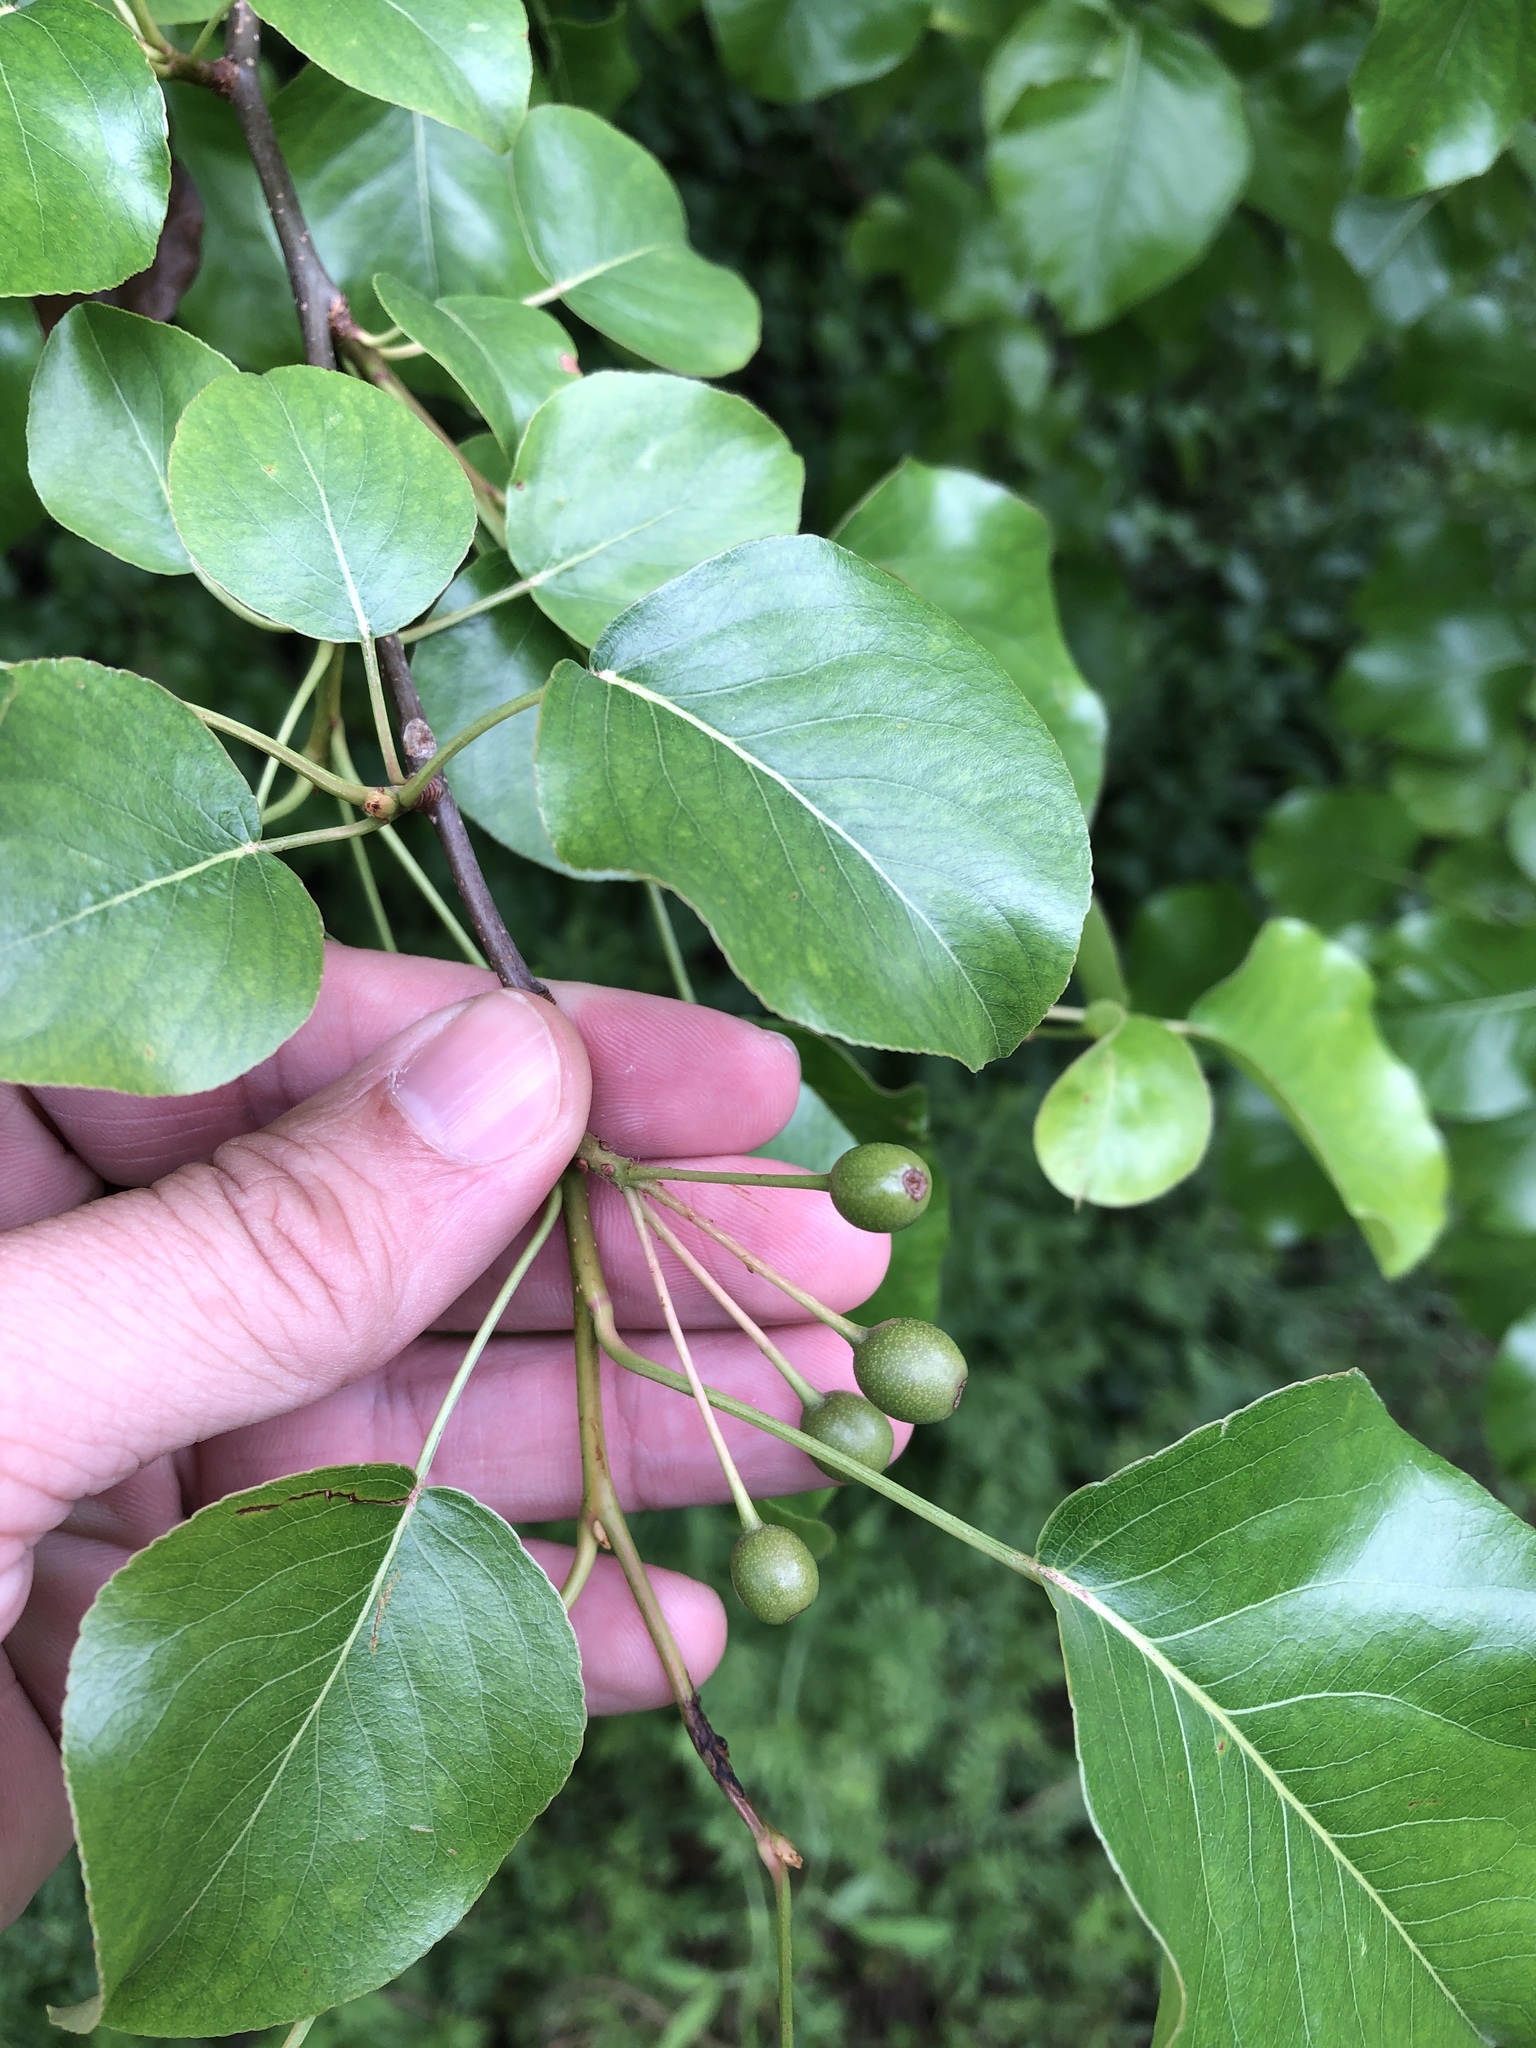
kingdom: Plantae
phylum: Tracheophyta
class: Magnoliopsida
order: Rosales
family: Rosaceae
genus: Pyrus
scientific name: Pyrus calleryana
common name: Callery pear
